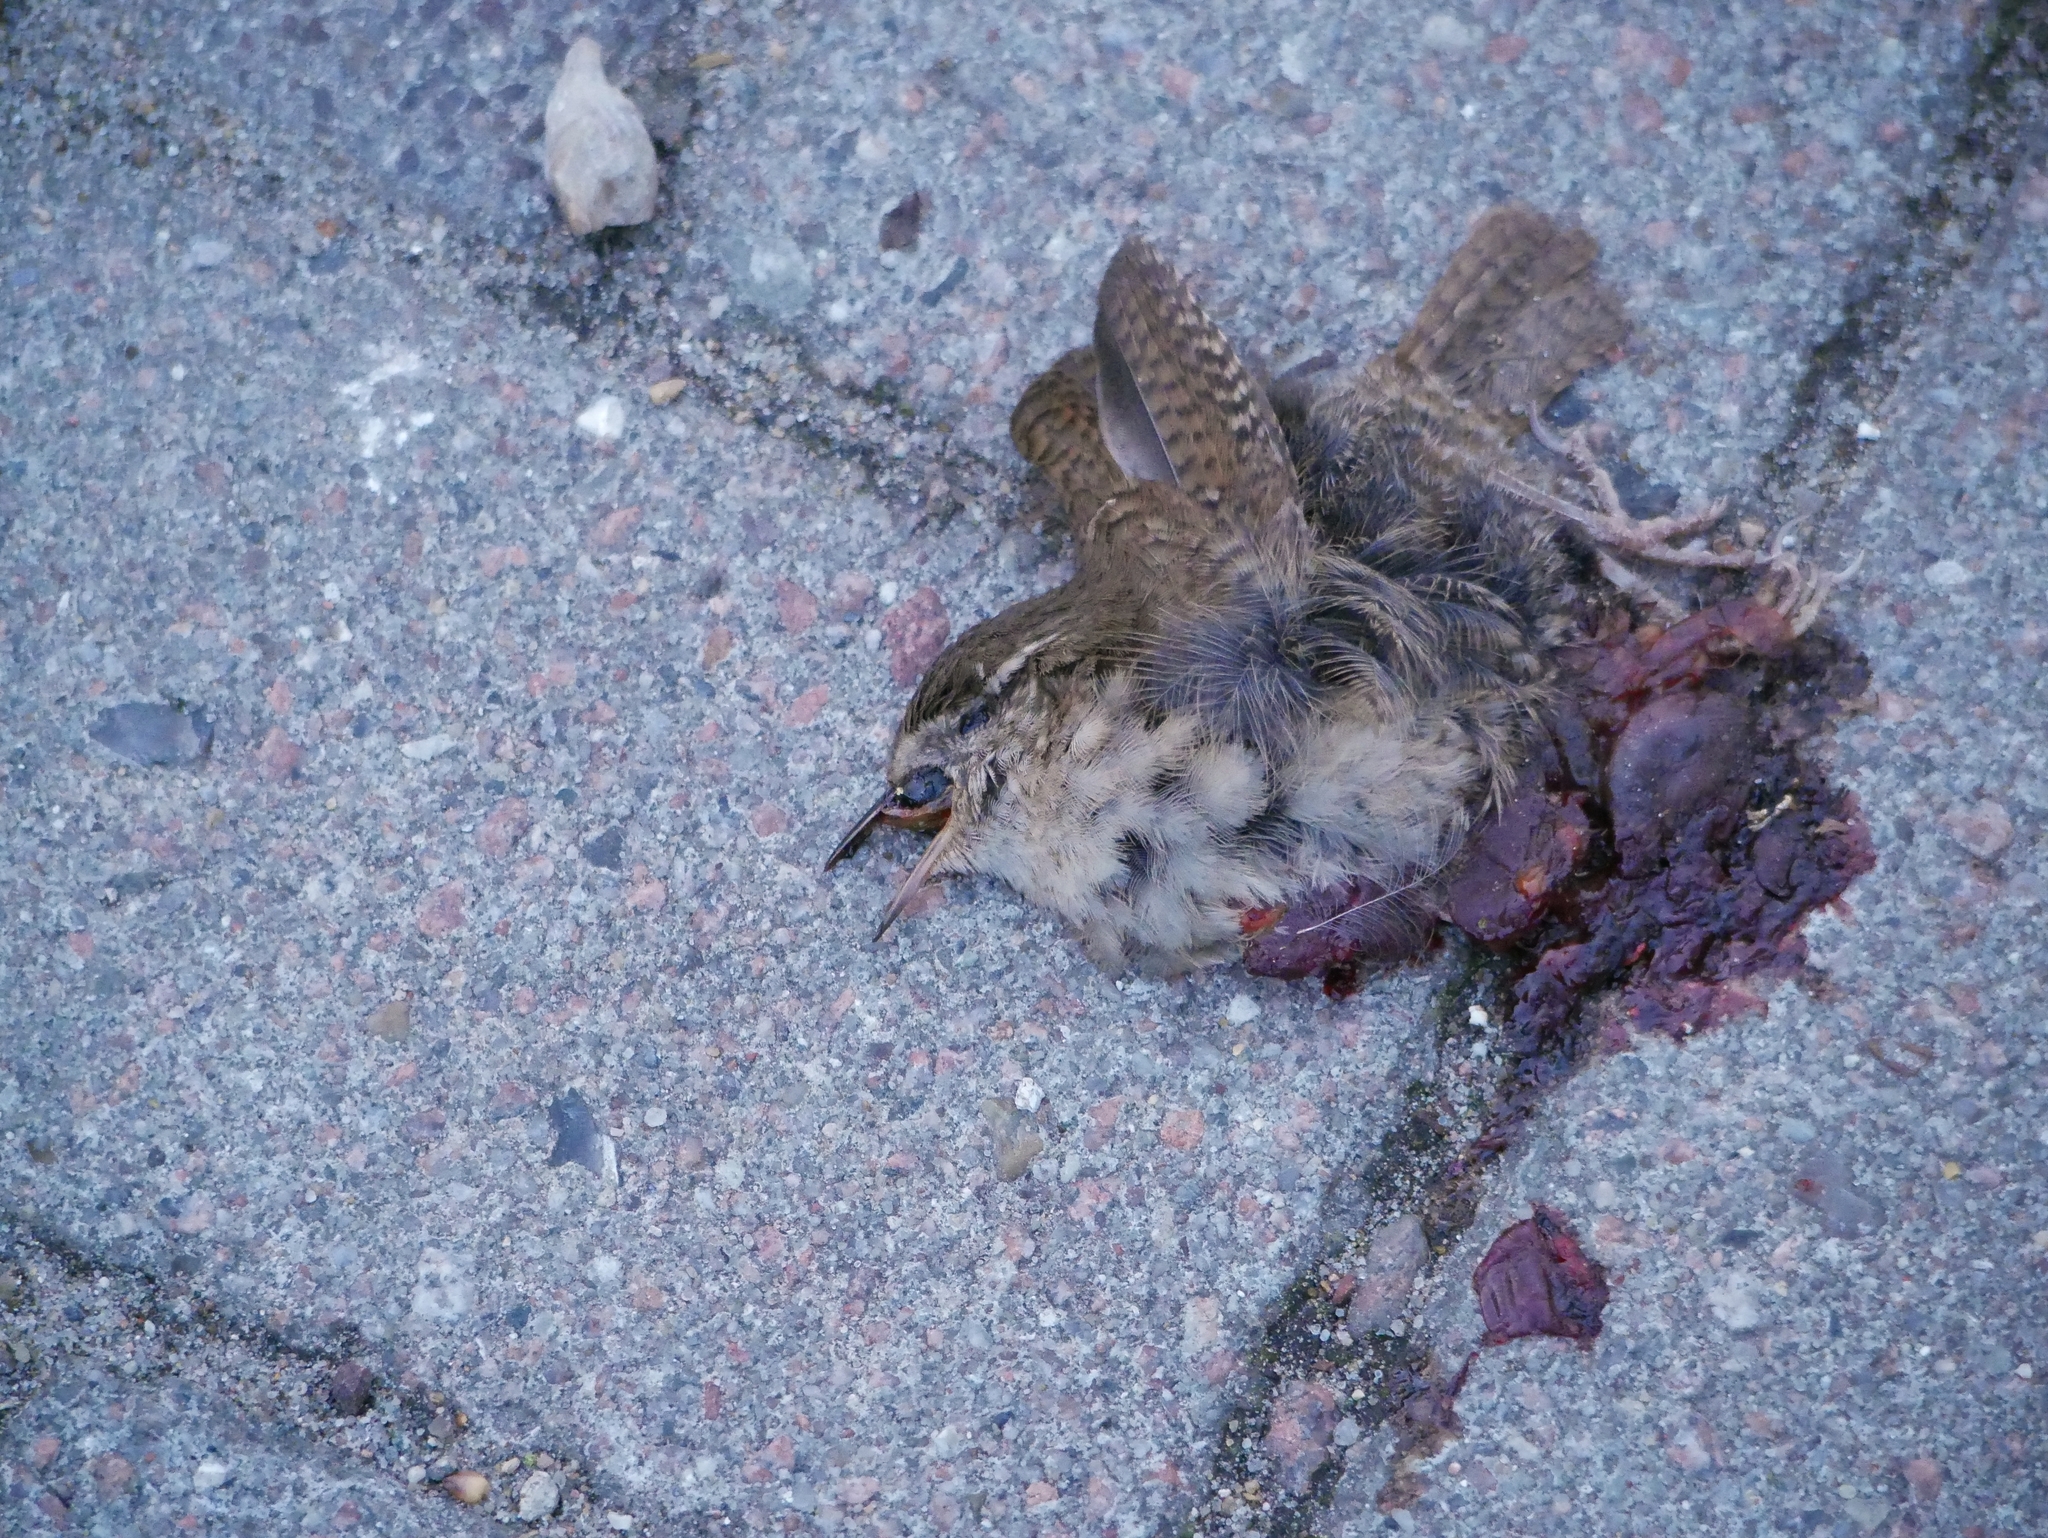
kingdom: Animalia
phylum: Chordata
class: Aves
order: Passeriformes
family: Troglodytidae
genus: Troglodytes
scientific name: Troglodytes troglodytes
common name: Eurasian wren
